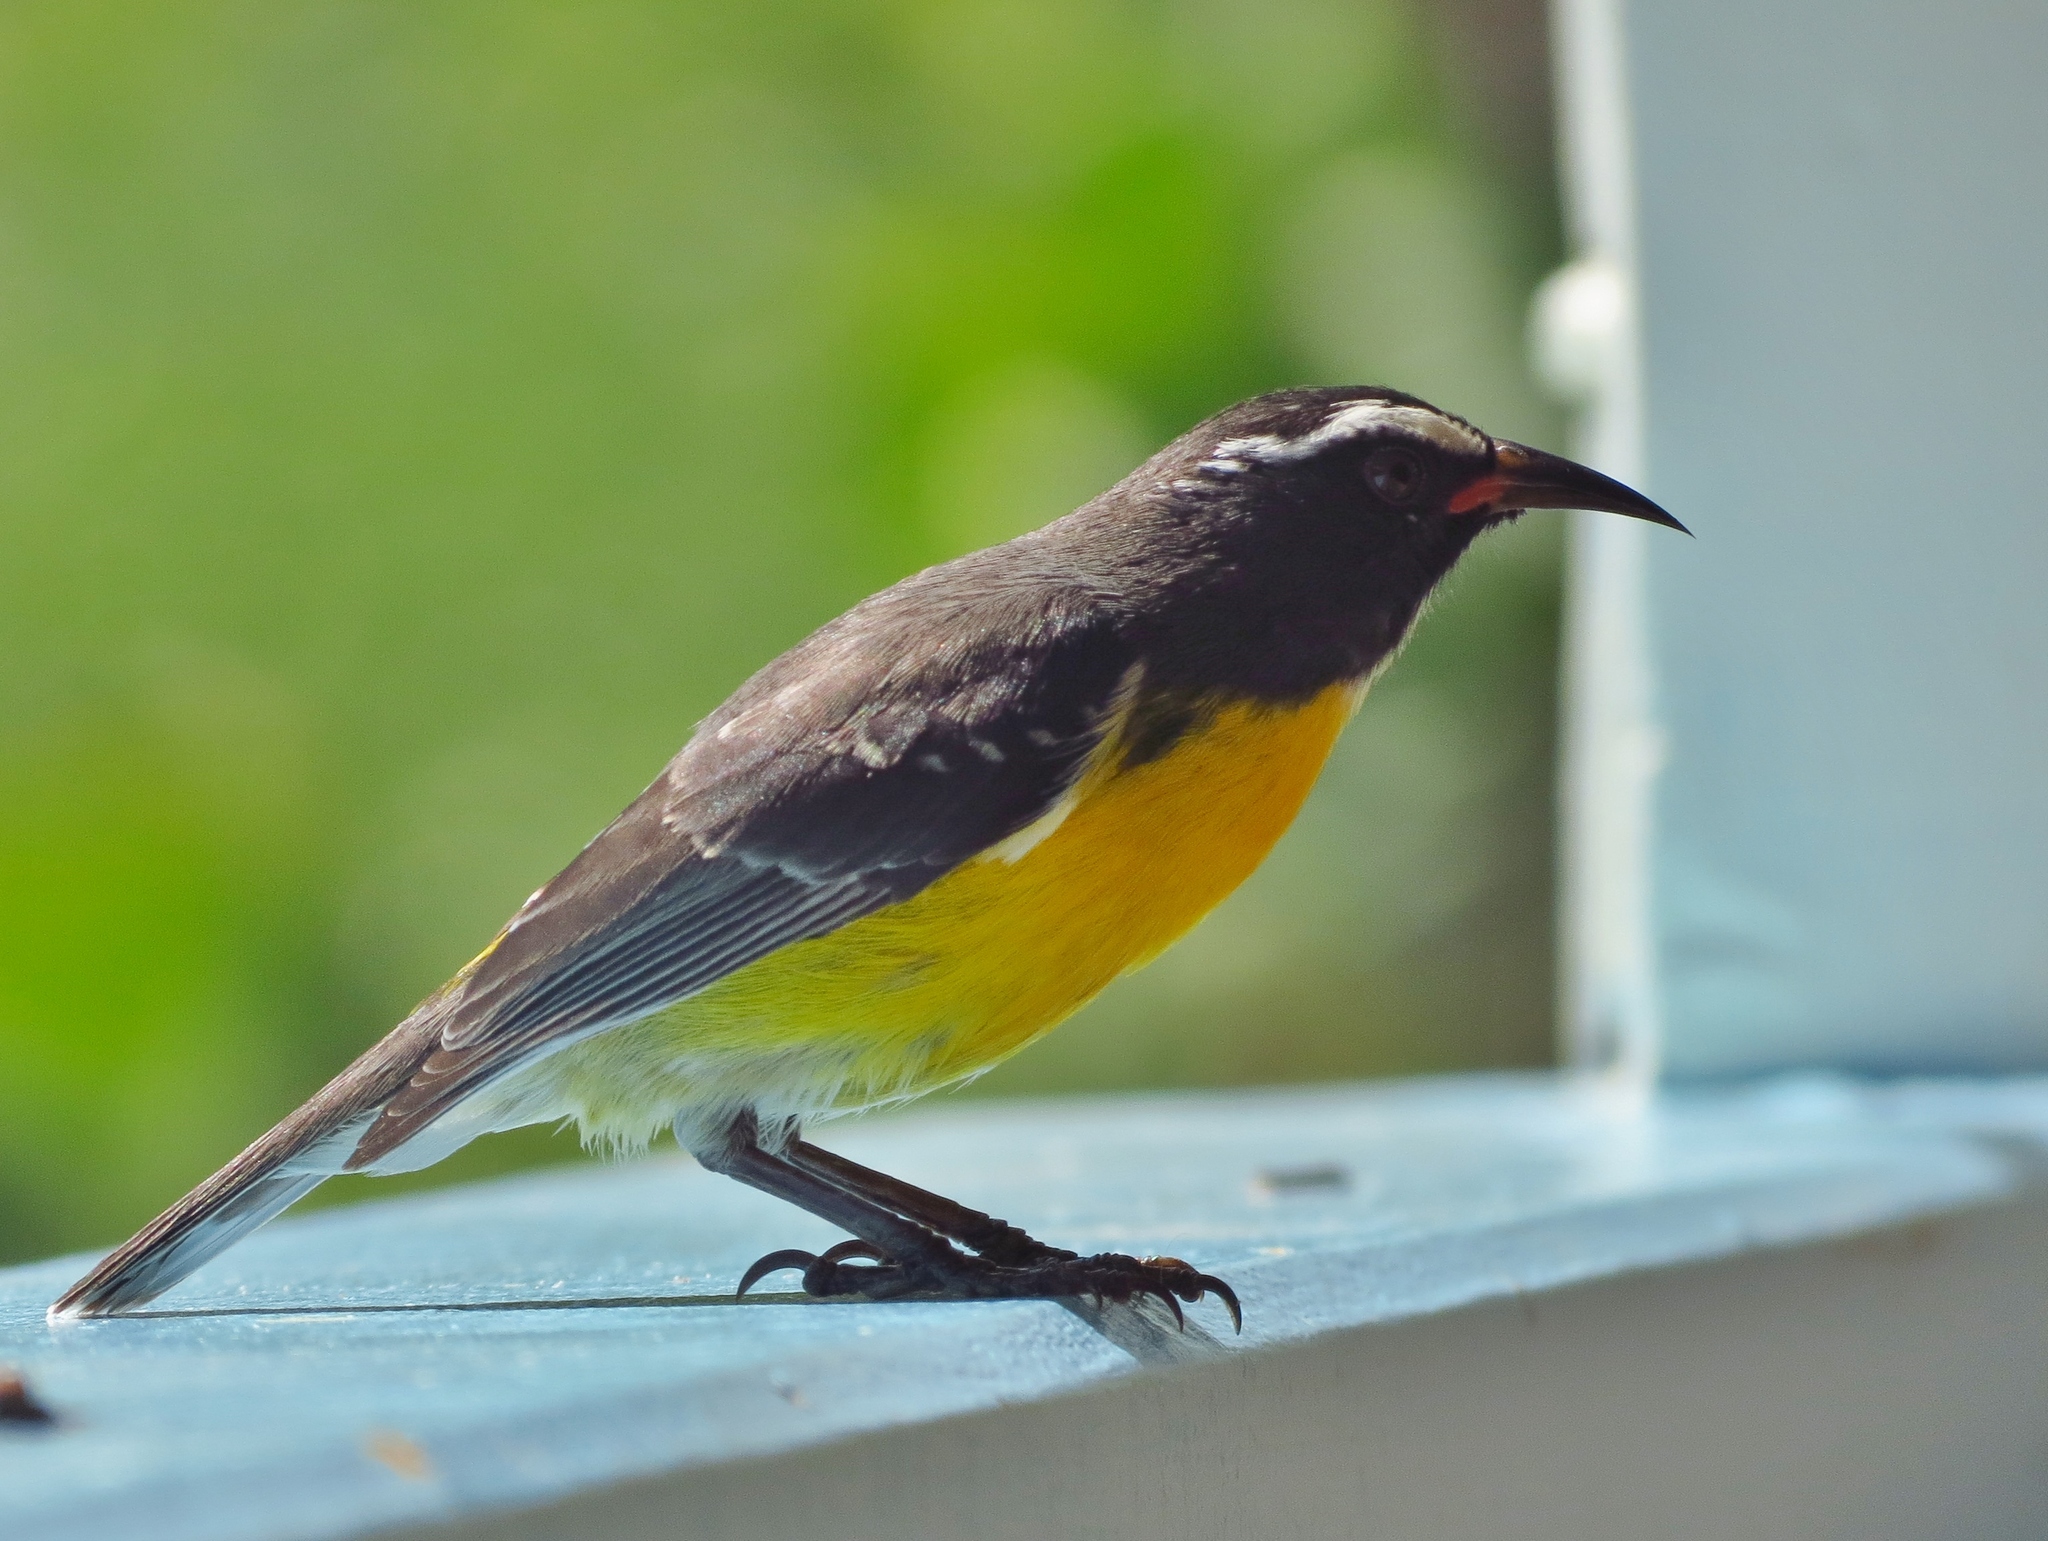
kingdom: Animalia
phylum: Chordata
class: Aves
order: Passeriformes
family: Thraupidae
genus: Coereba
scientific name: Coereba flaveola
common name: Bananaquit
